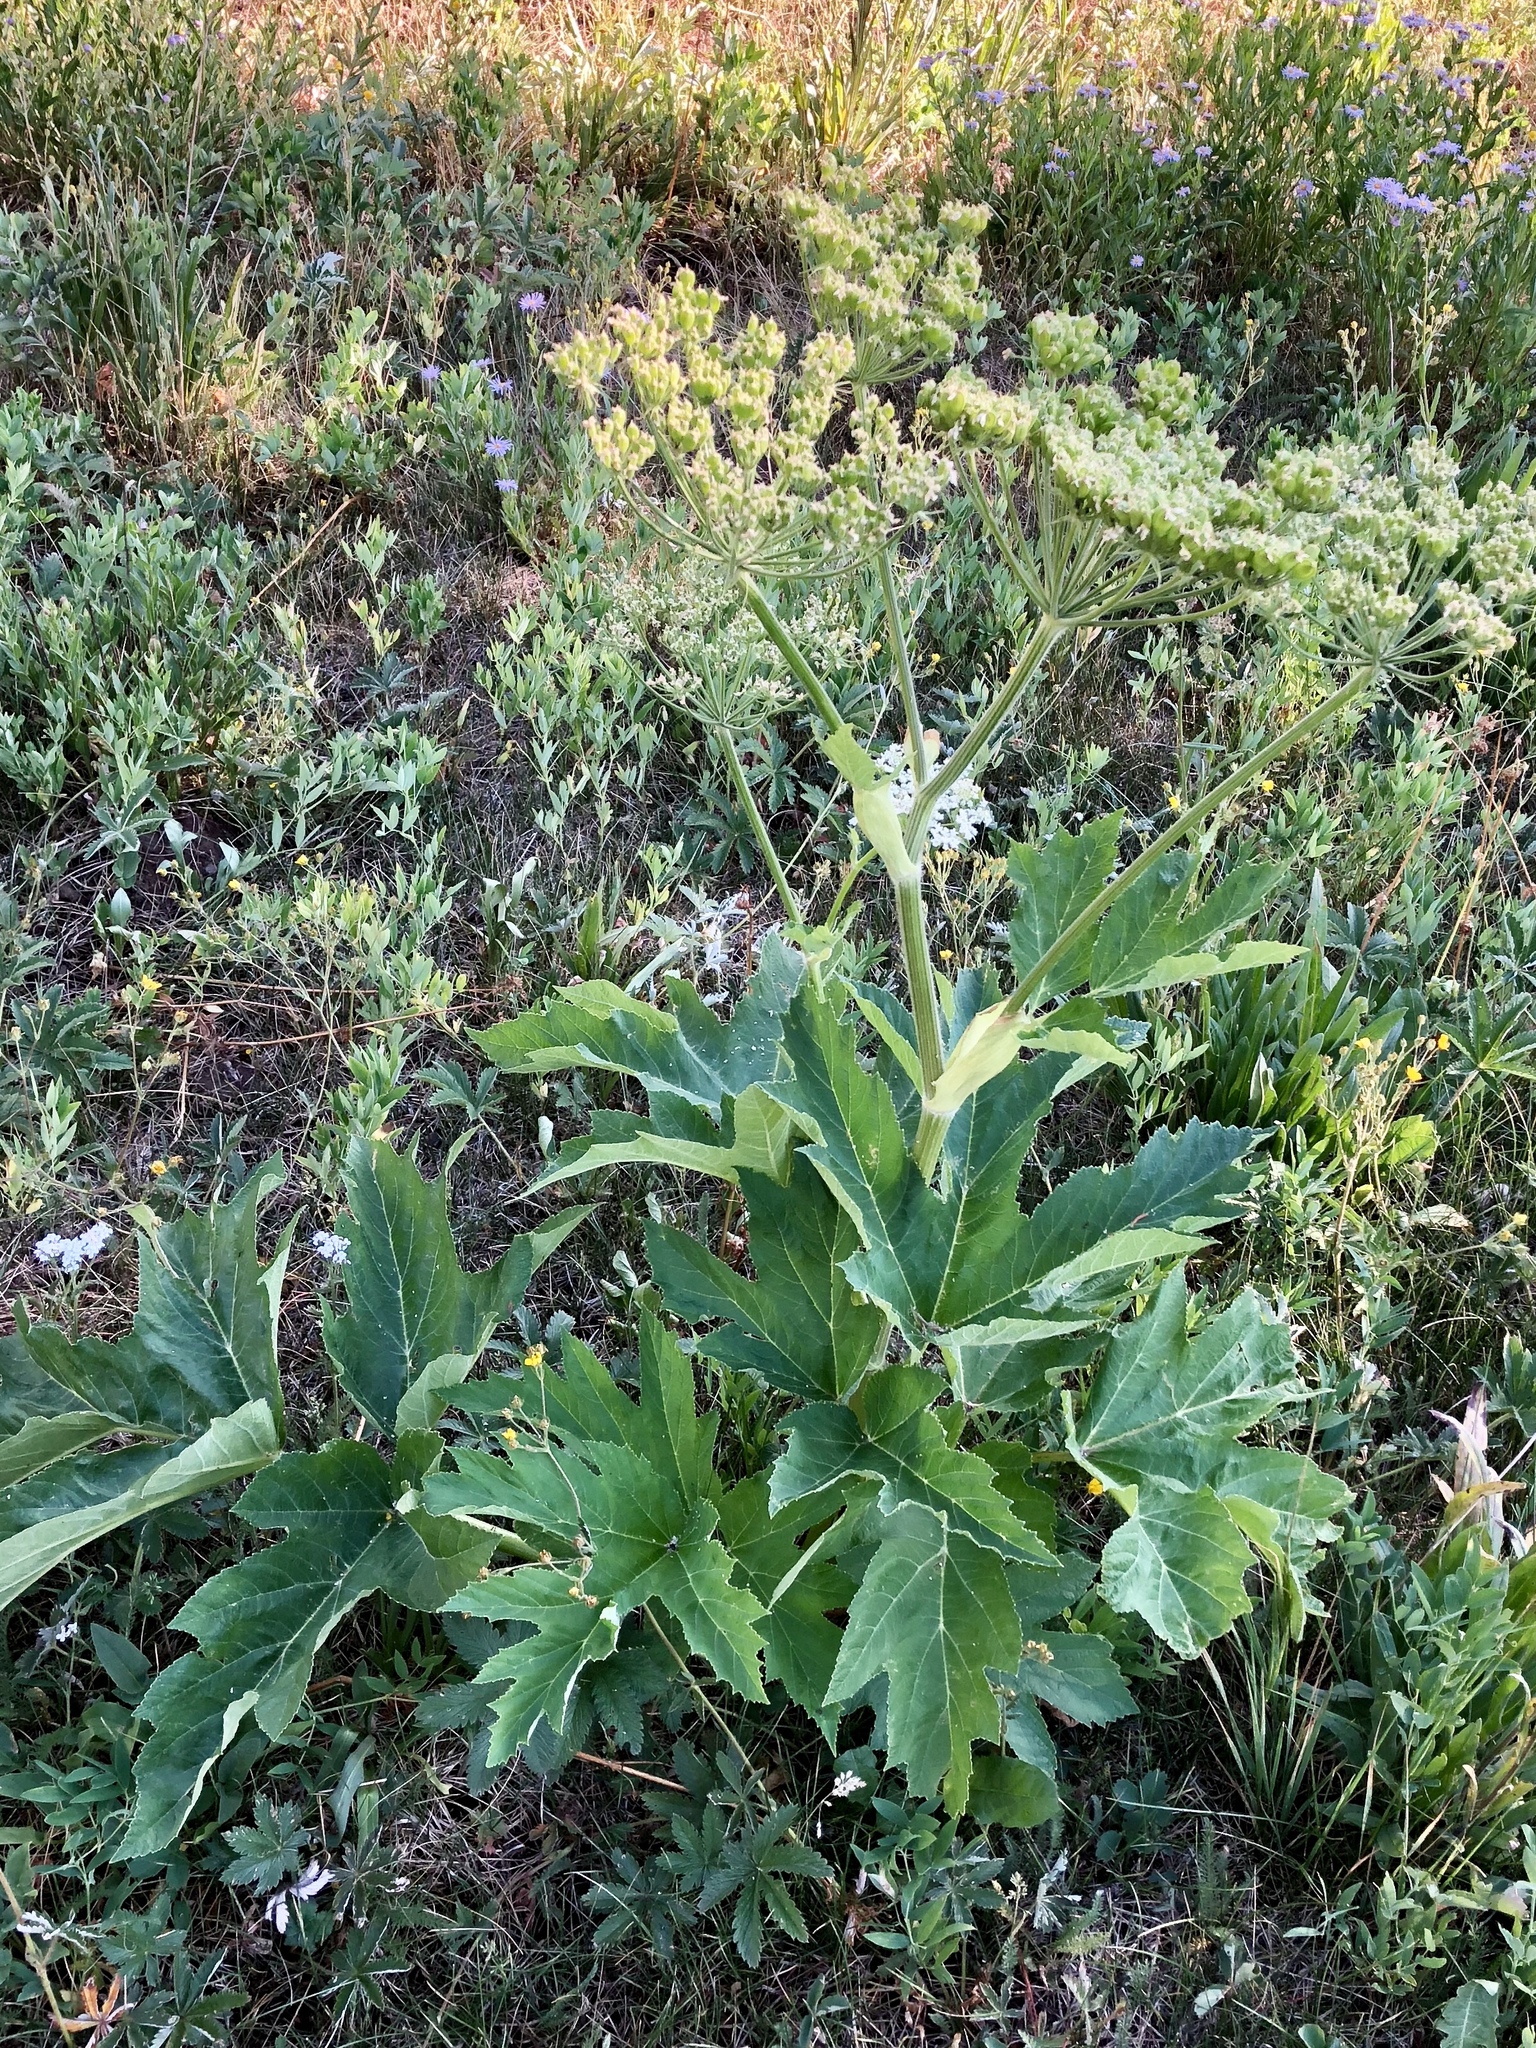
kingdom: Plantae
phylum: Tracheophyta
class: Magnoliopsida
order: Apiales
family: Apiaceae
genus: Heracleum
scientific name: Heracleum maximum
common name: American cow parsnip
